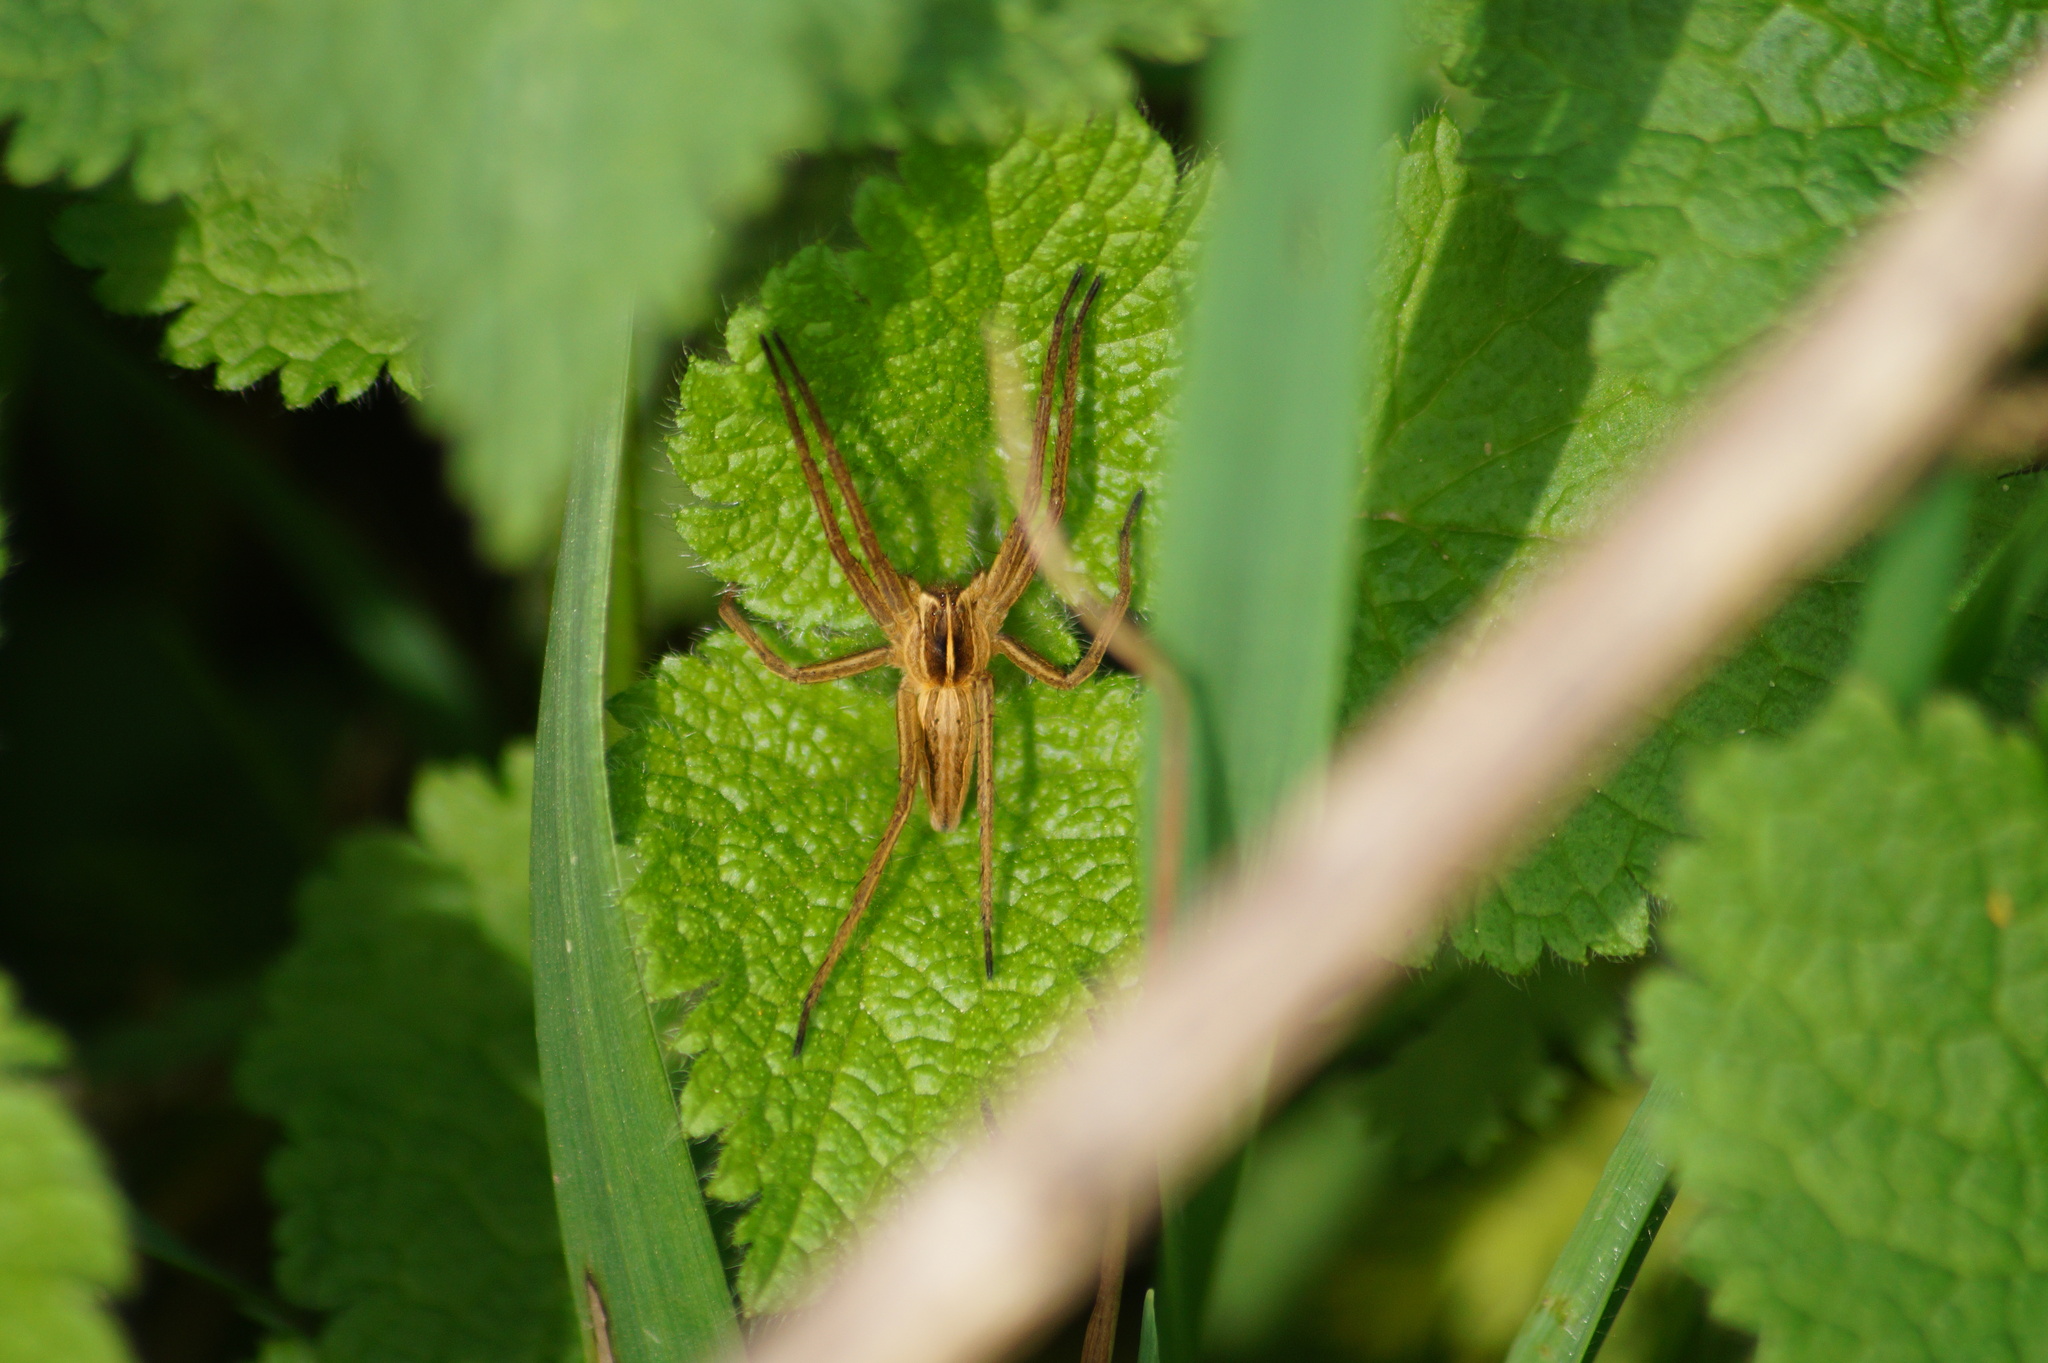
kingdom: Animalia
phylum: Arthropoda
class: Arachnida
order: Araneae
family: Pisauridae
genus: Pisaura
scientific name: Pisaura mirabilis
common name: Tent spider
